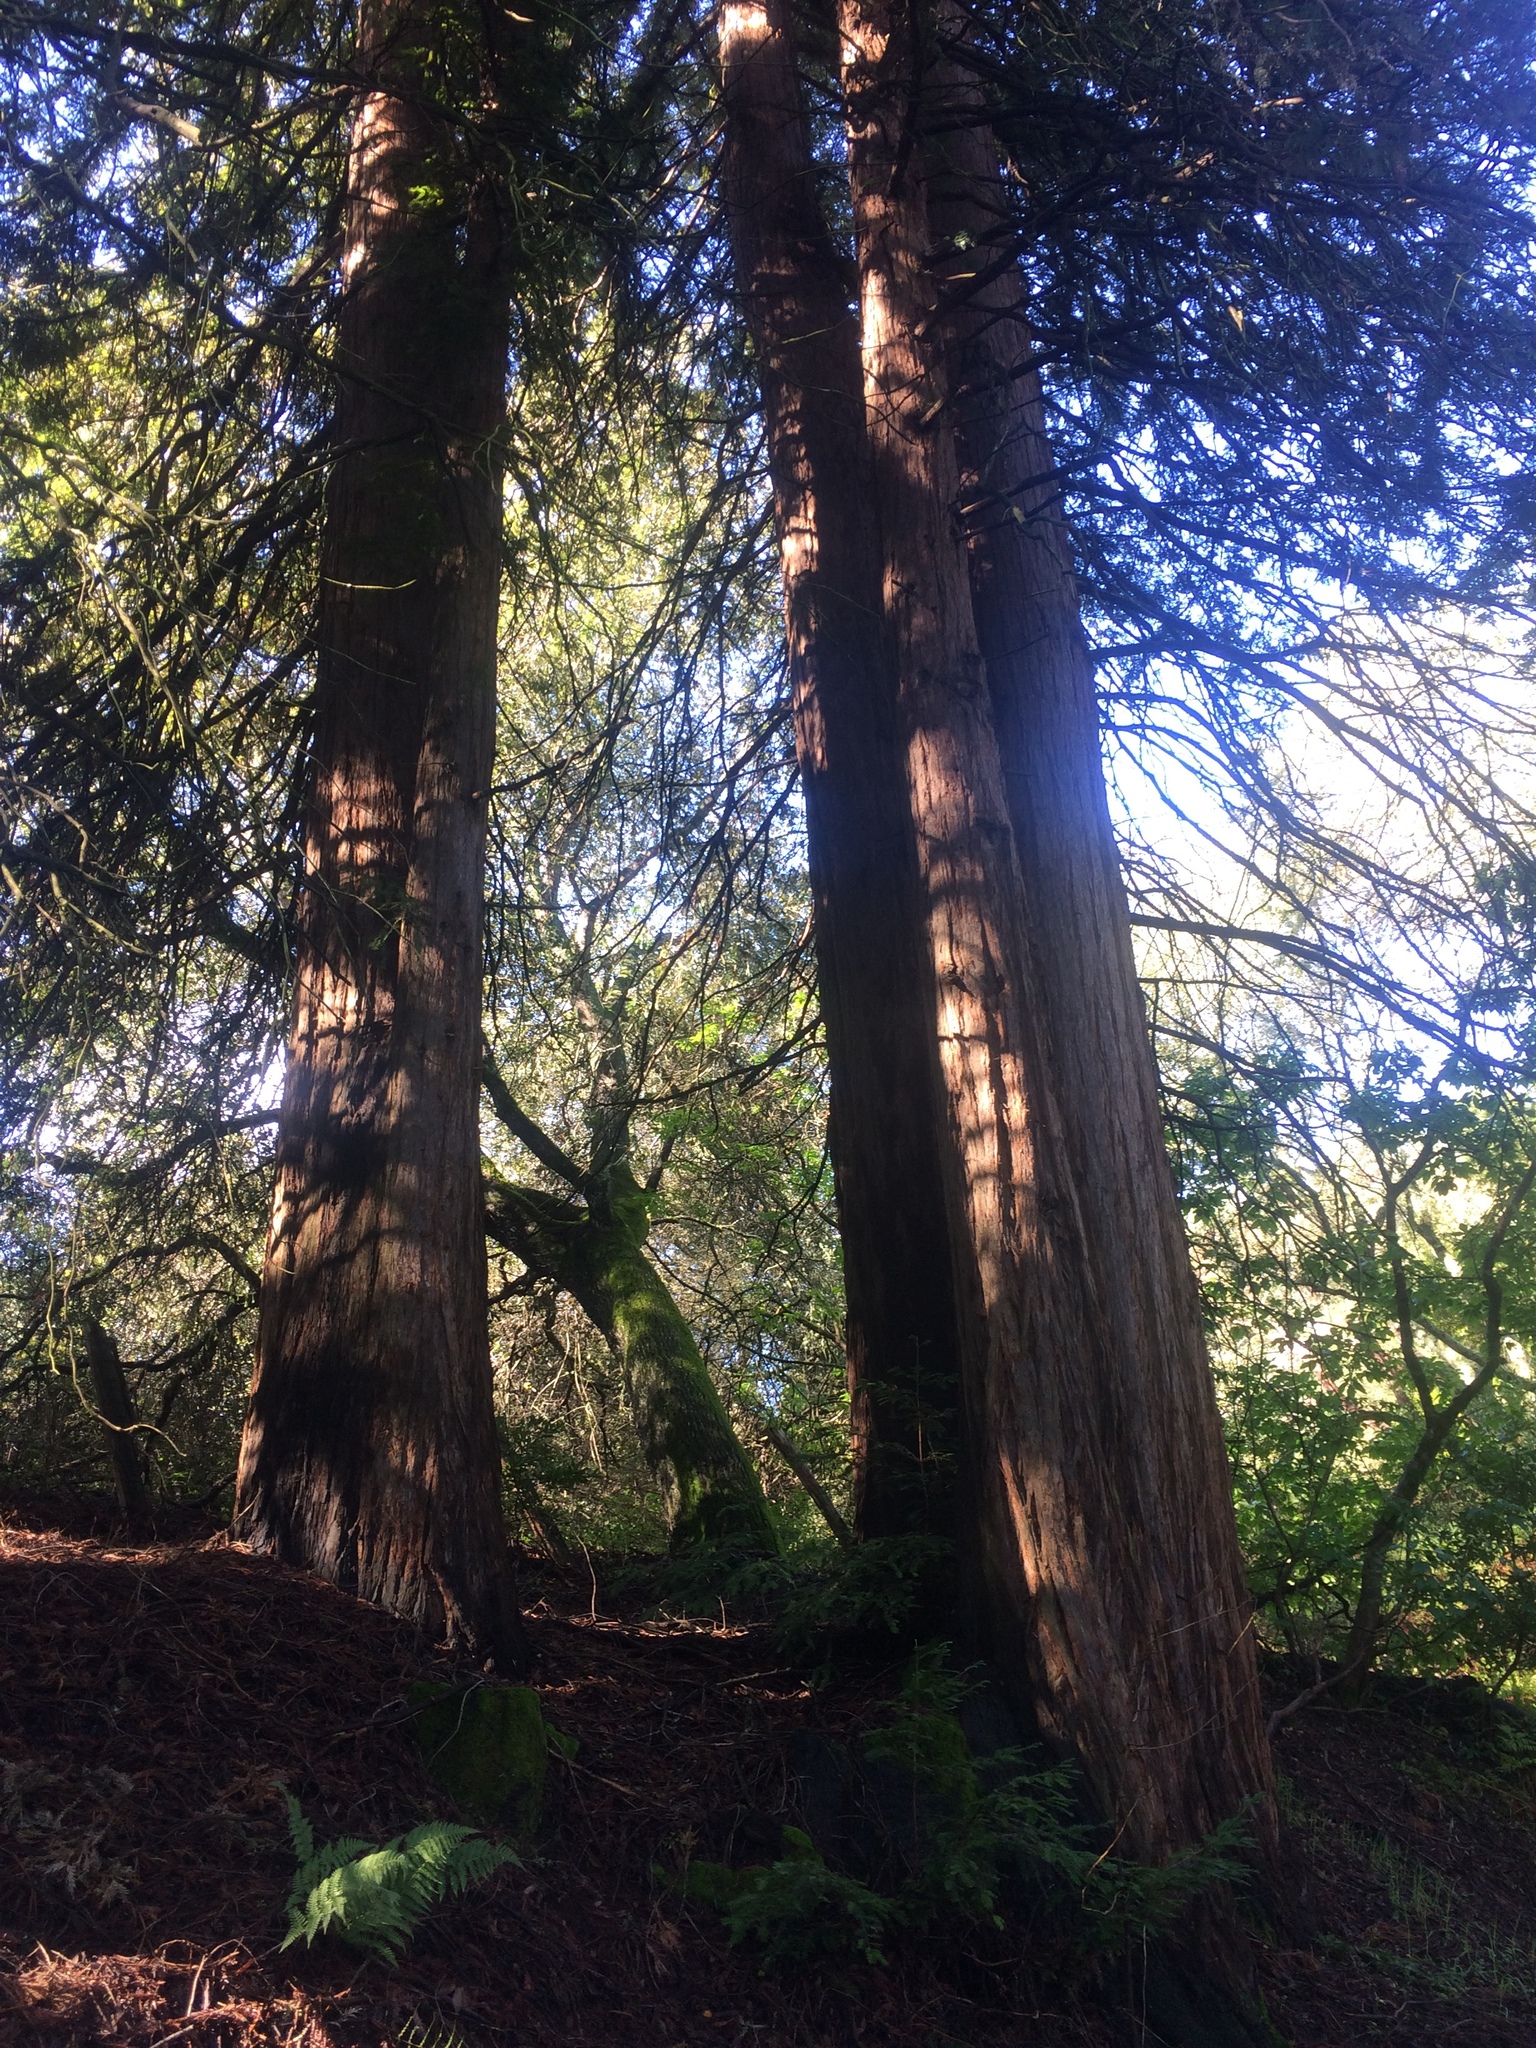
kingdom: Plantae
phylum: Tracheophyta
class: Pinopsida
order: Pinales
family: Cupressaceae
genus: Sequoia
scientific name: Sequoia sempervirens
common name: Coast redwood
